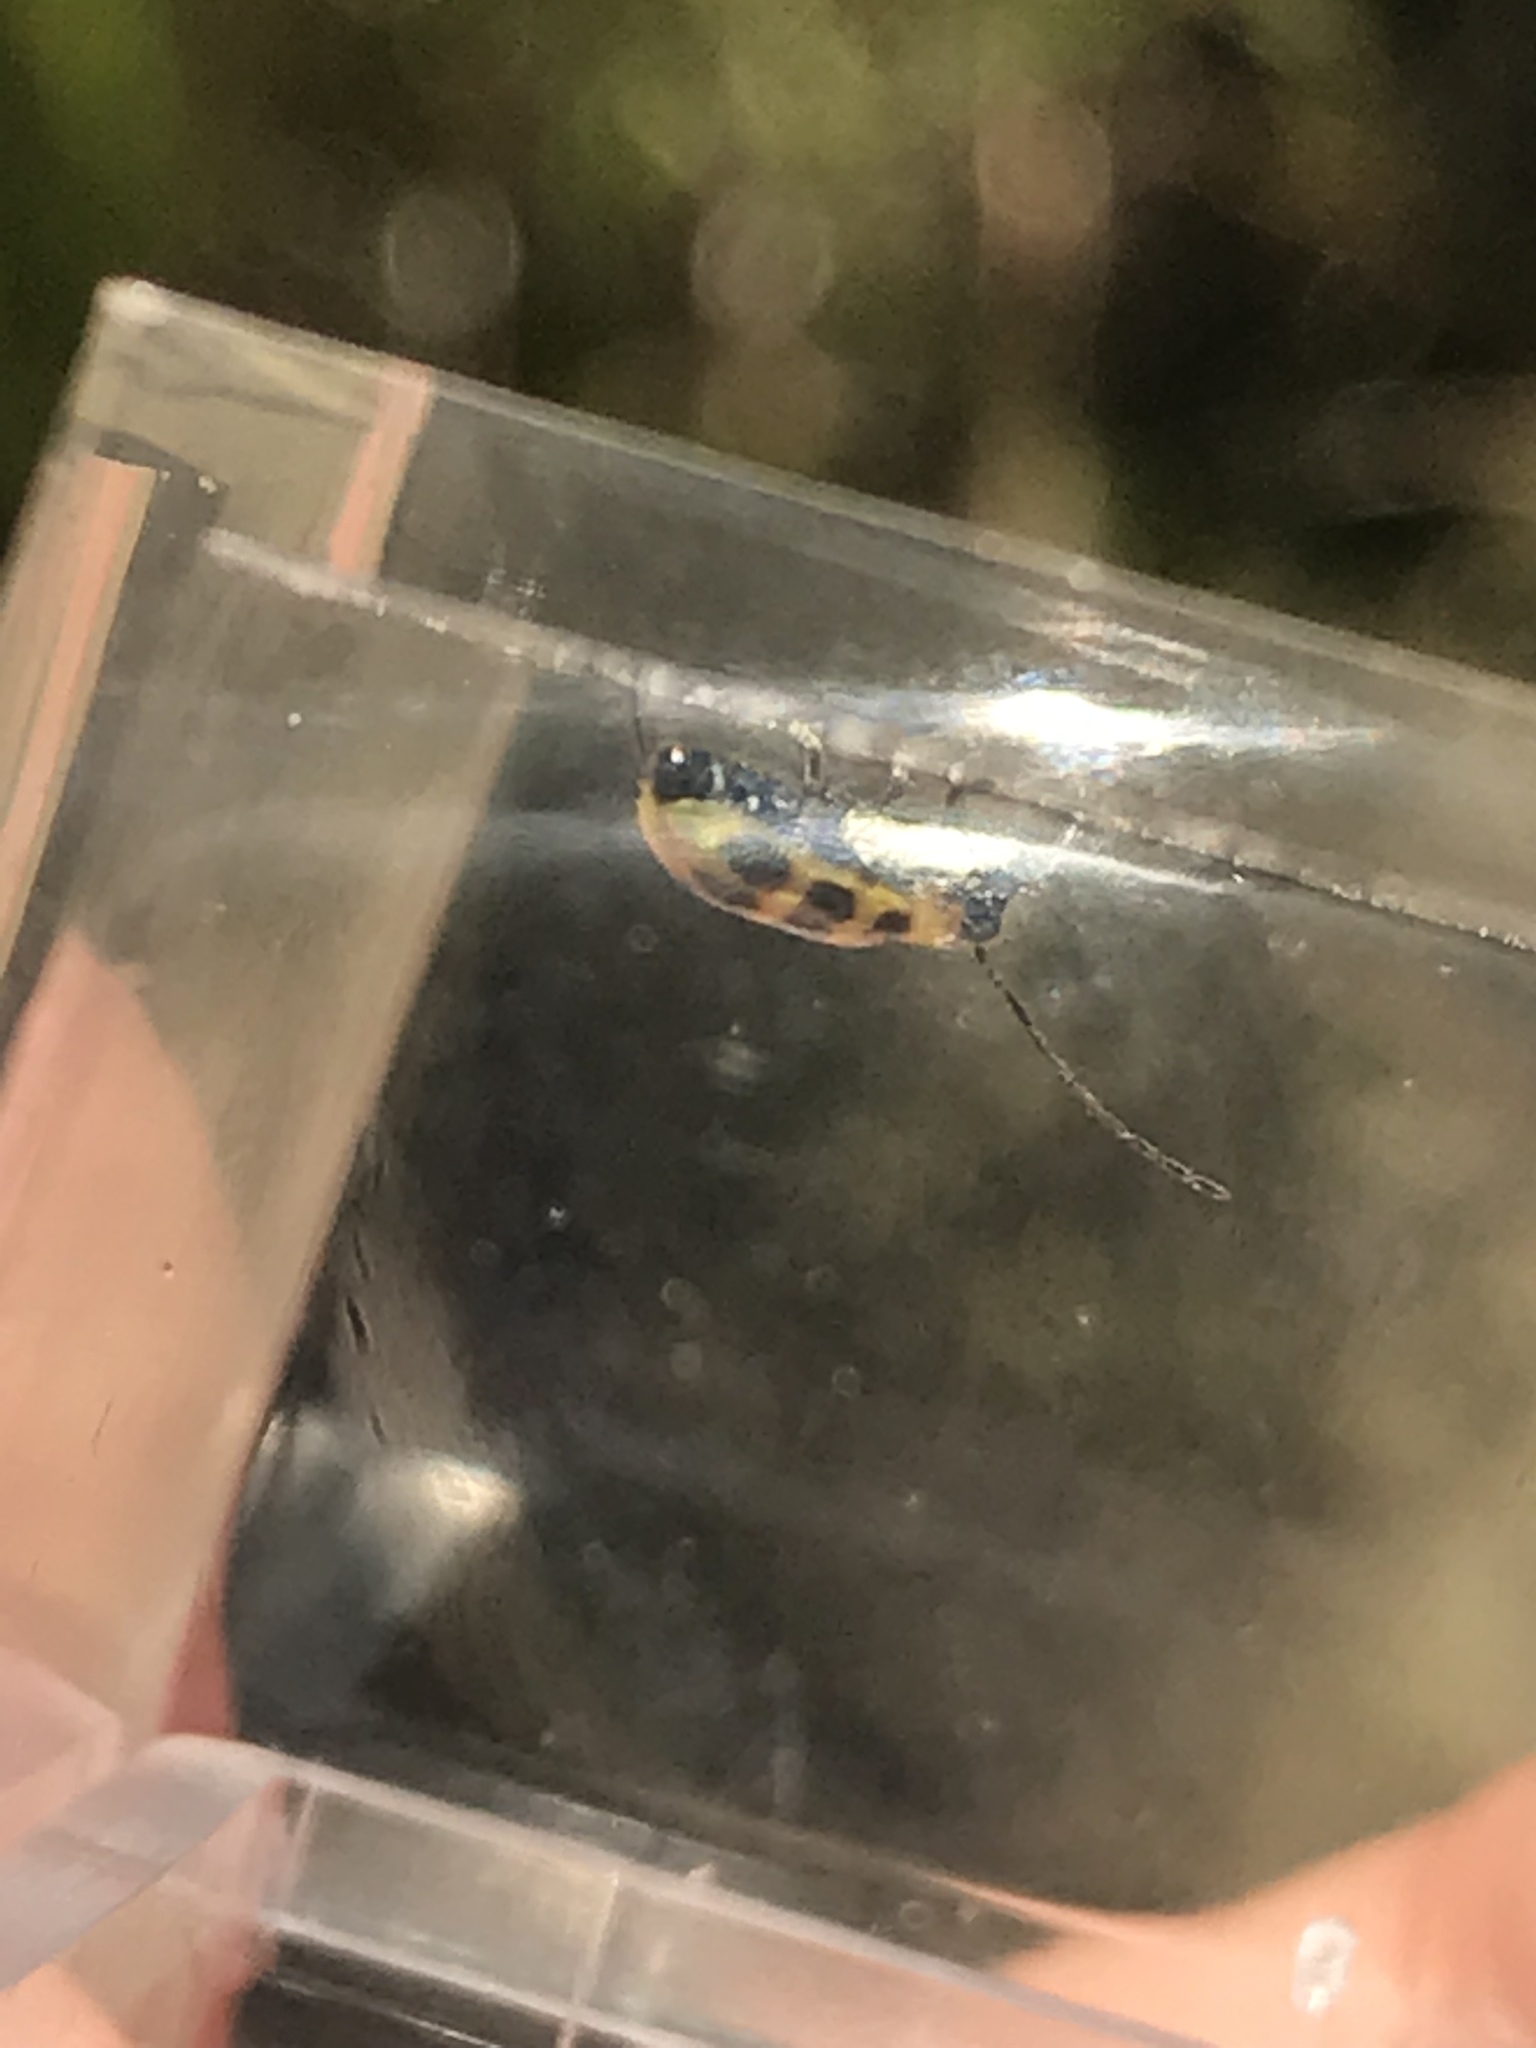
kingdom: Animalia
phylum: Arthropoda
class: Insecta
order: Coleoptera
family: Chrysomelidae
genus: Diabrotica
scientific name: Diabrotica undecimpunctata
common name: Spotted cucumber beetle
